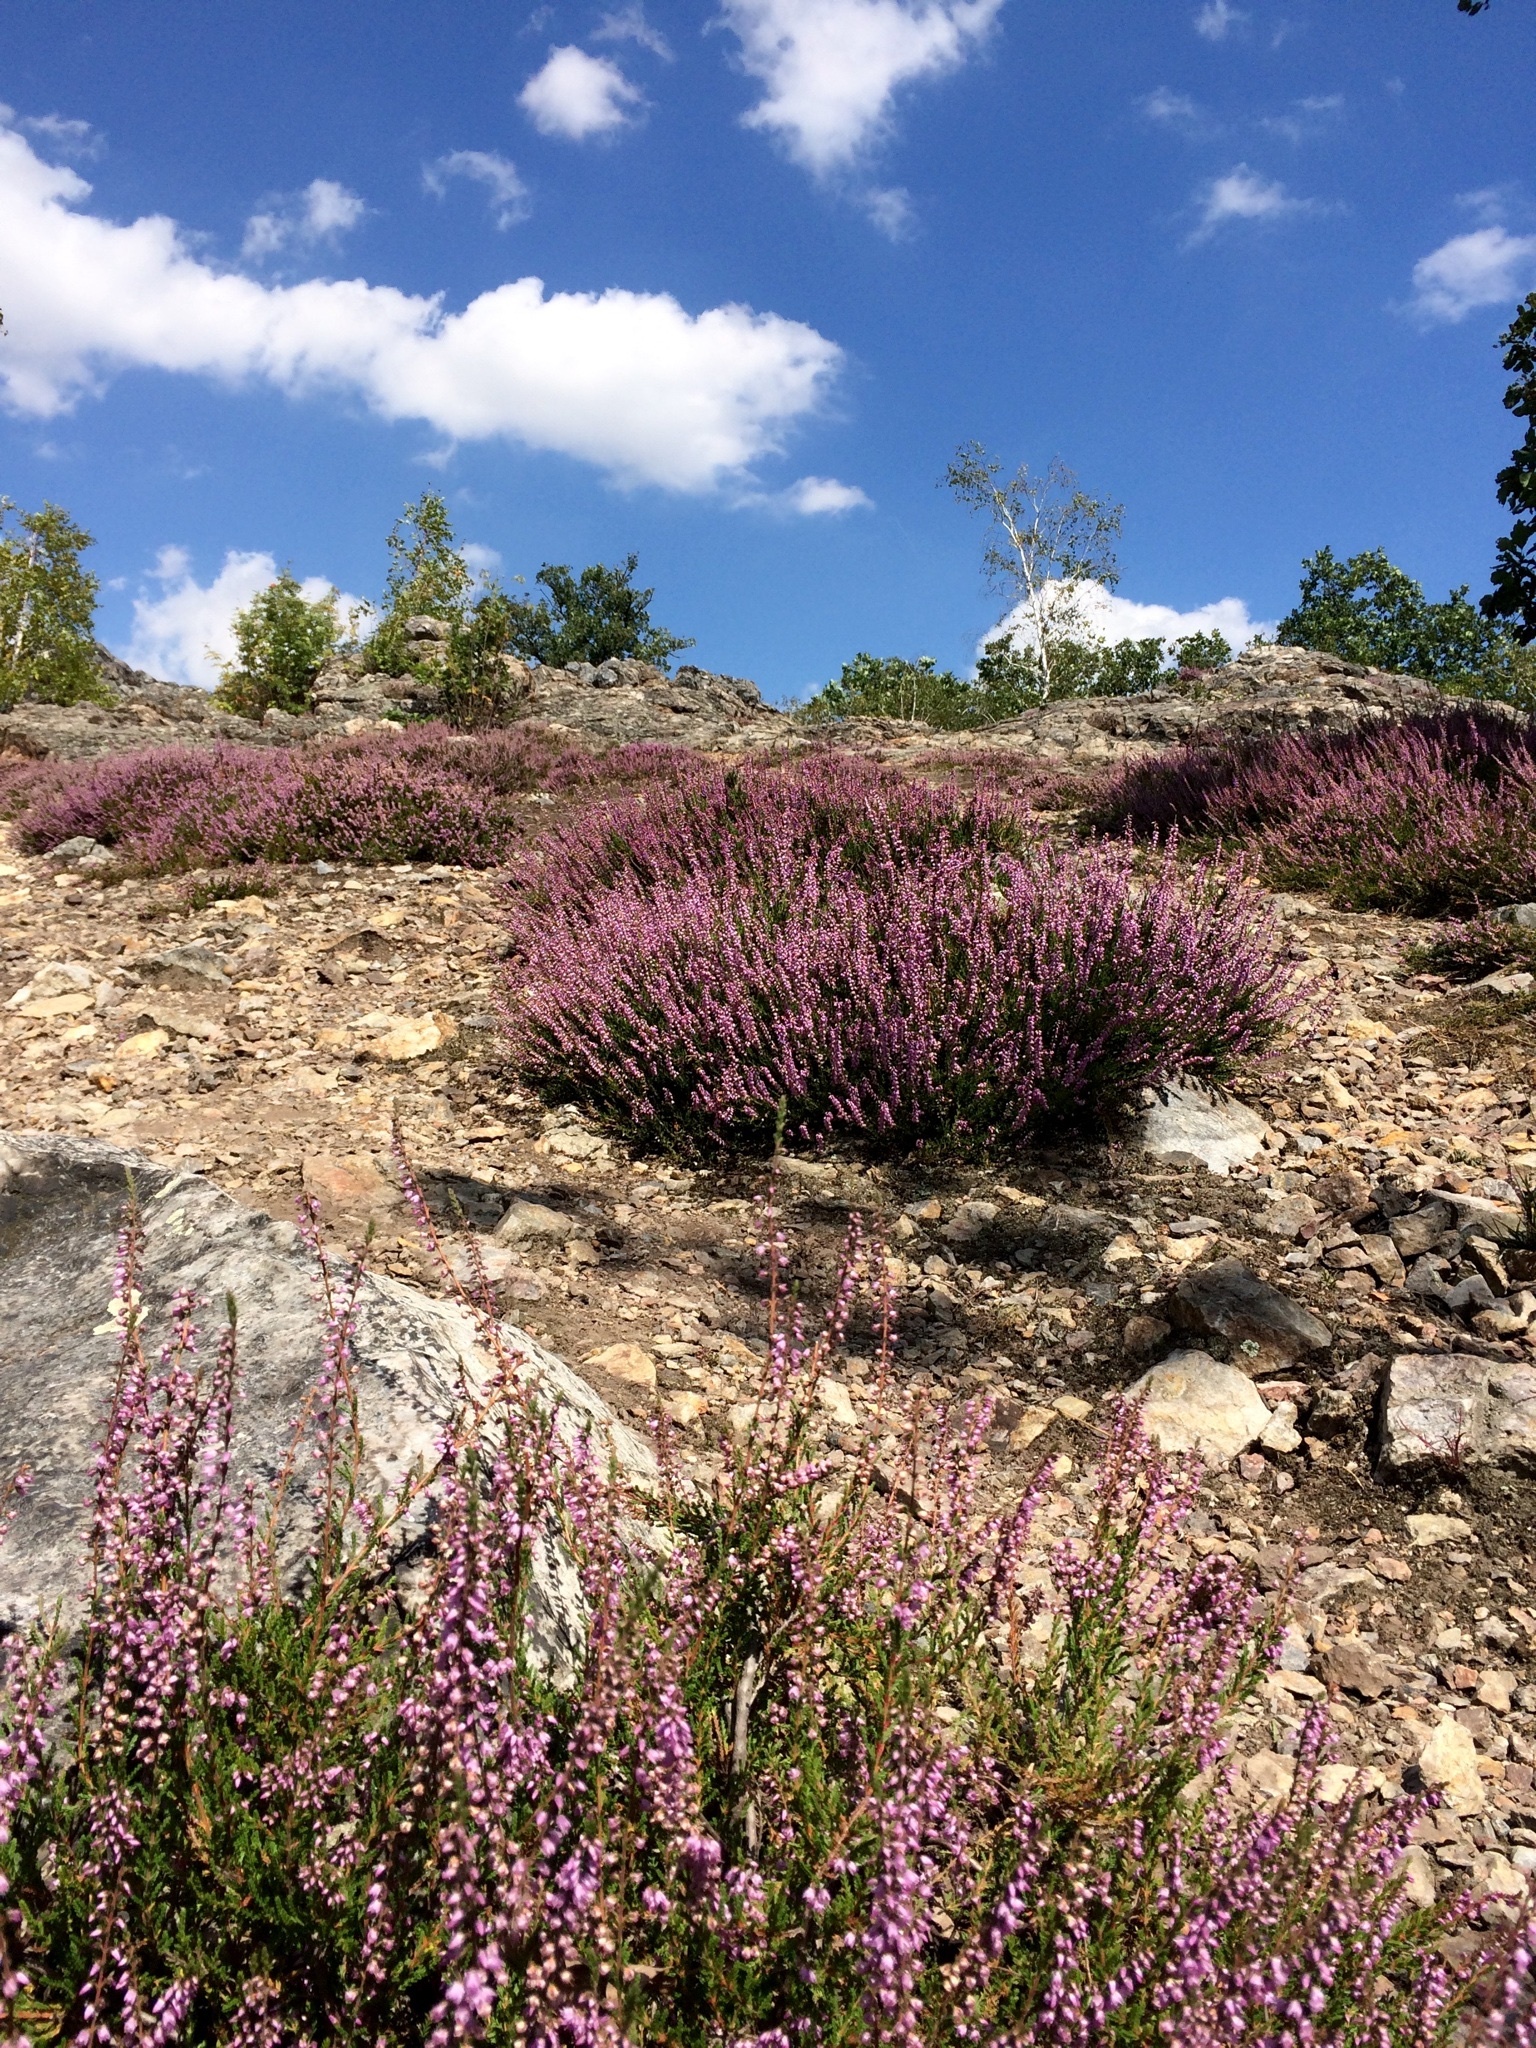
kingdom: Plantae
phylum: Tracheophyta
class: Magnoliopsida
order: Ericales
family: Ericaceae
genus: Calluna
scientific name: Calluna vulgaris
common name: Heather
